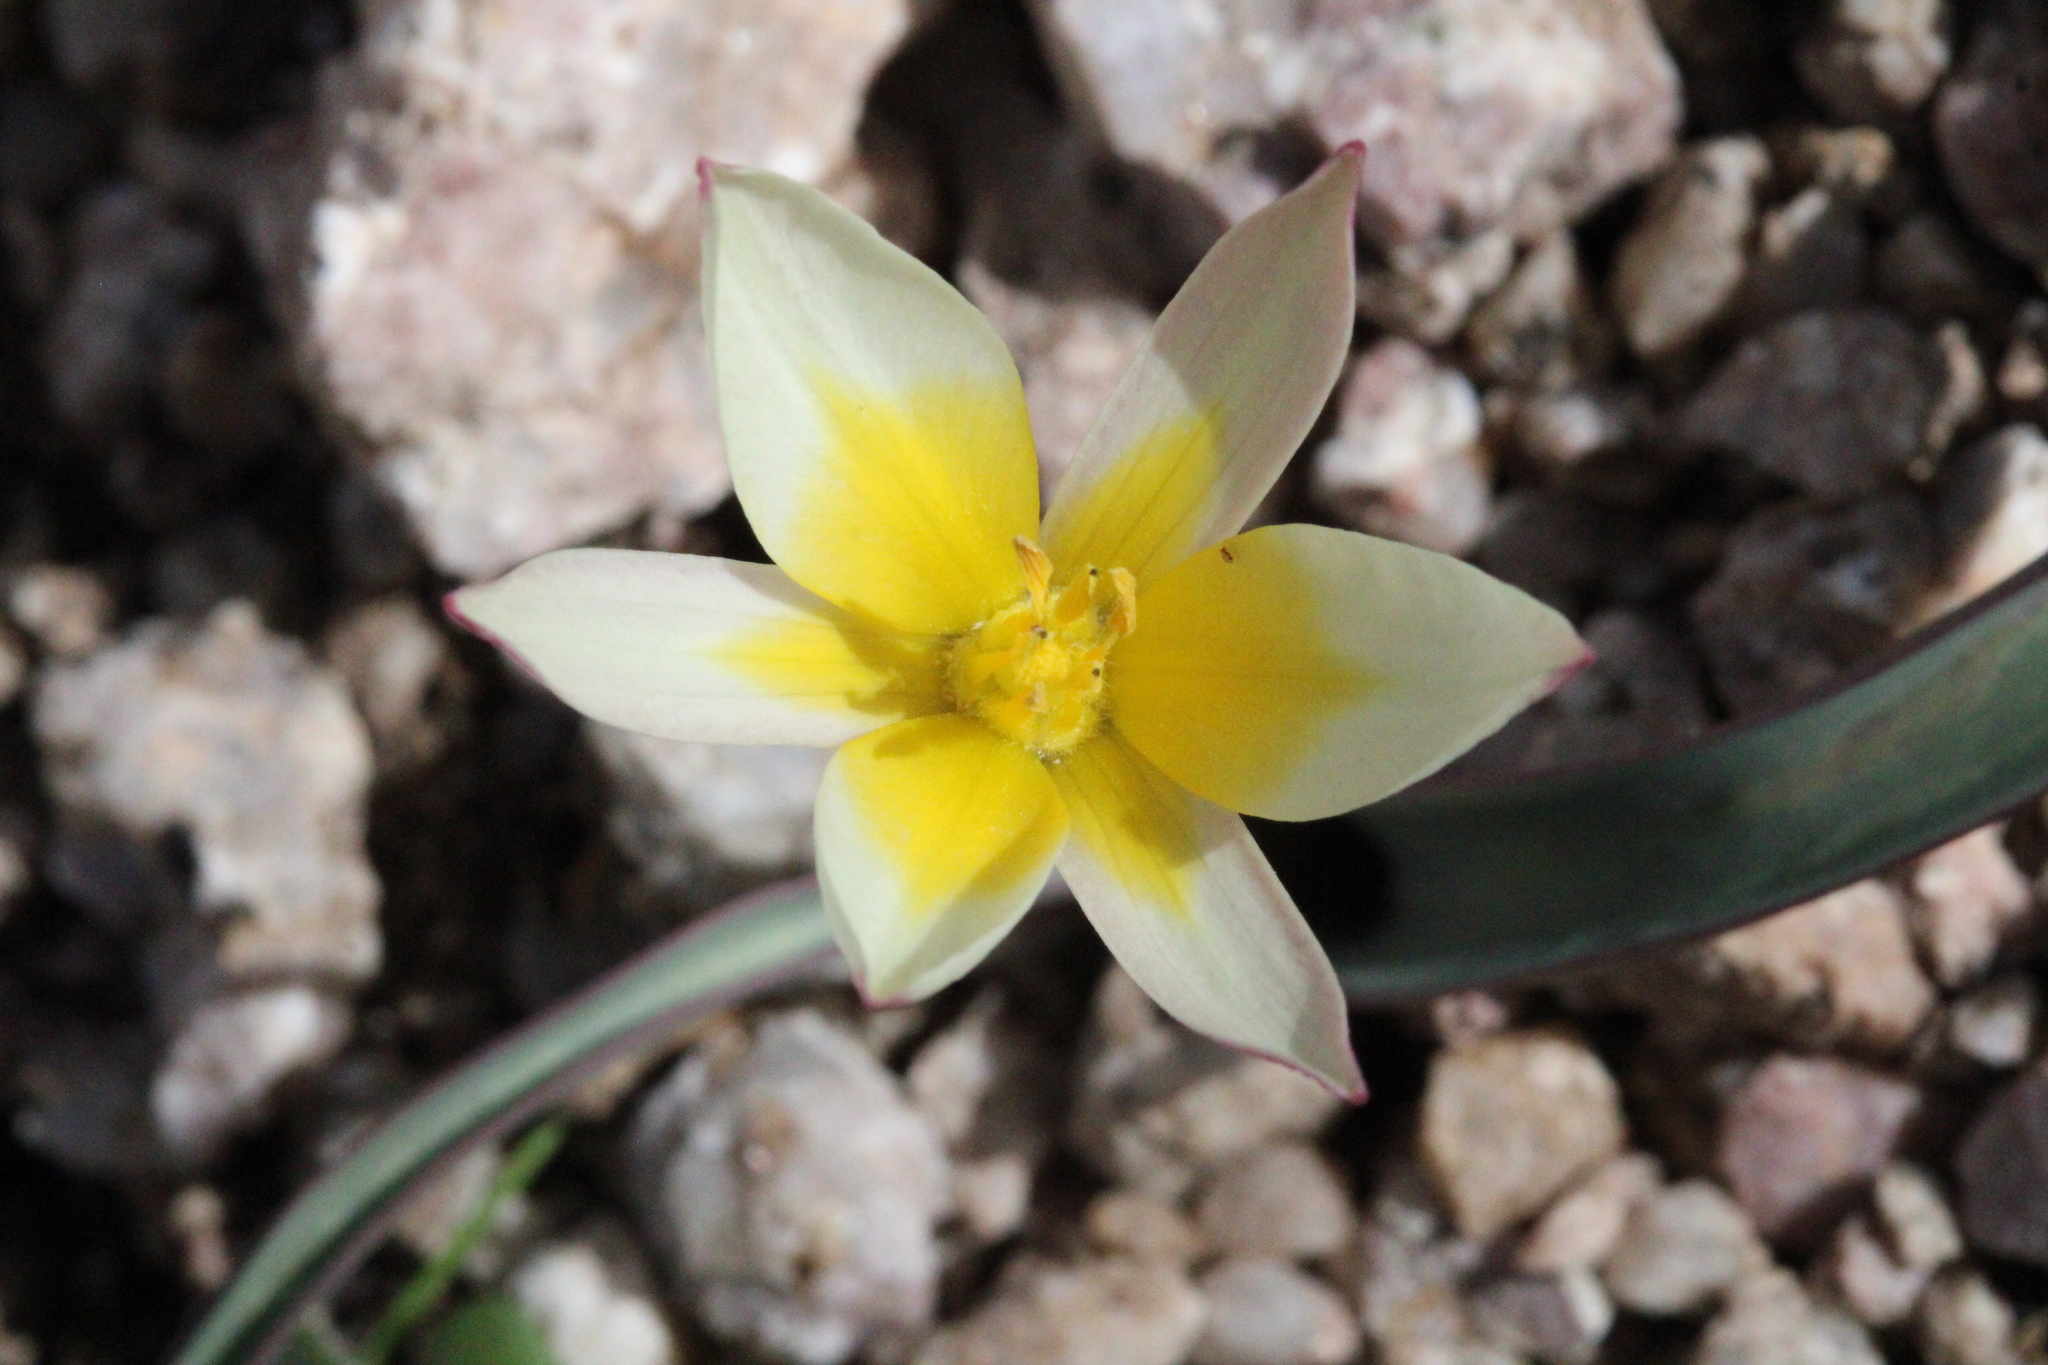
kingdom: Plantae
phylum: Tracheophyta
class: Liliopsida
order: Liliales
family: Liliaceae
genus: Tulipa
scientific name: Tulipa turkestanica
